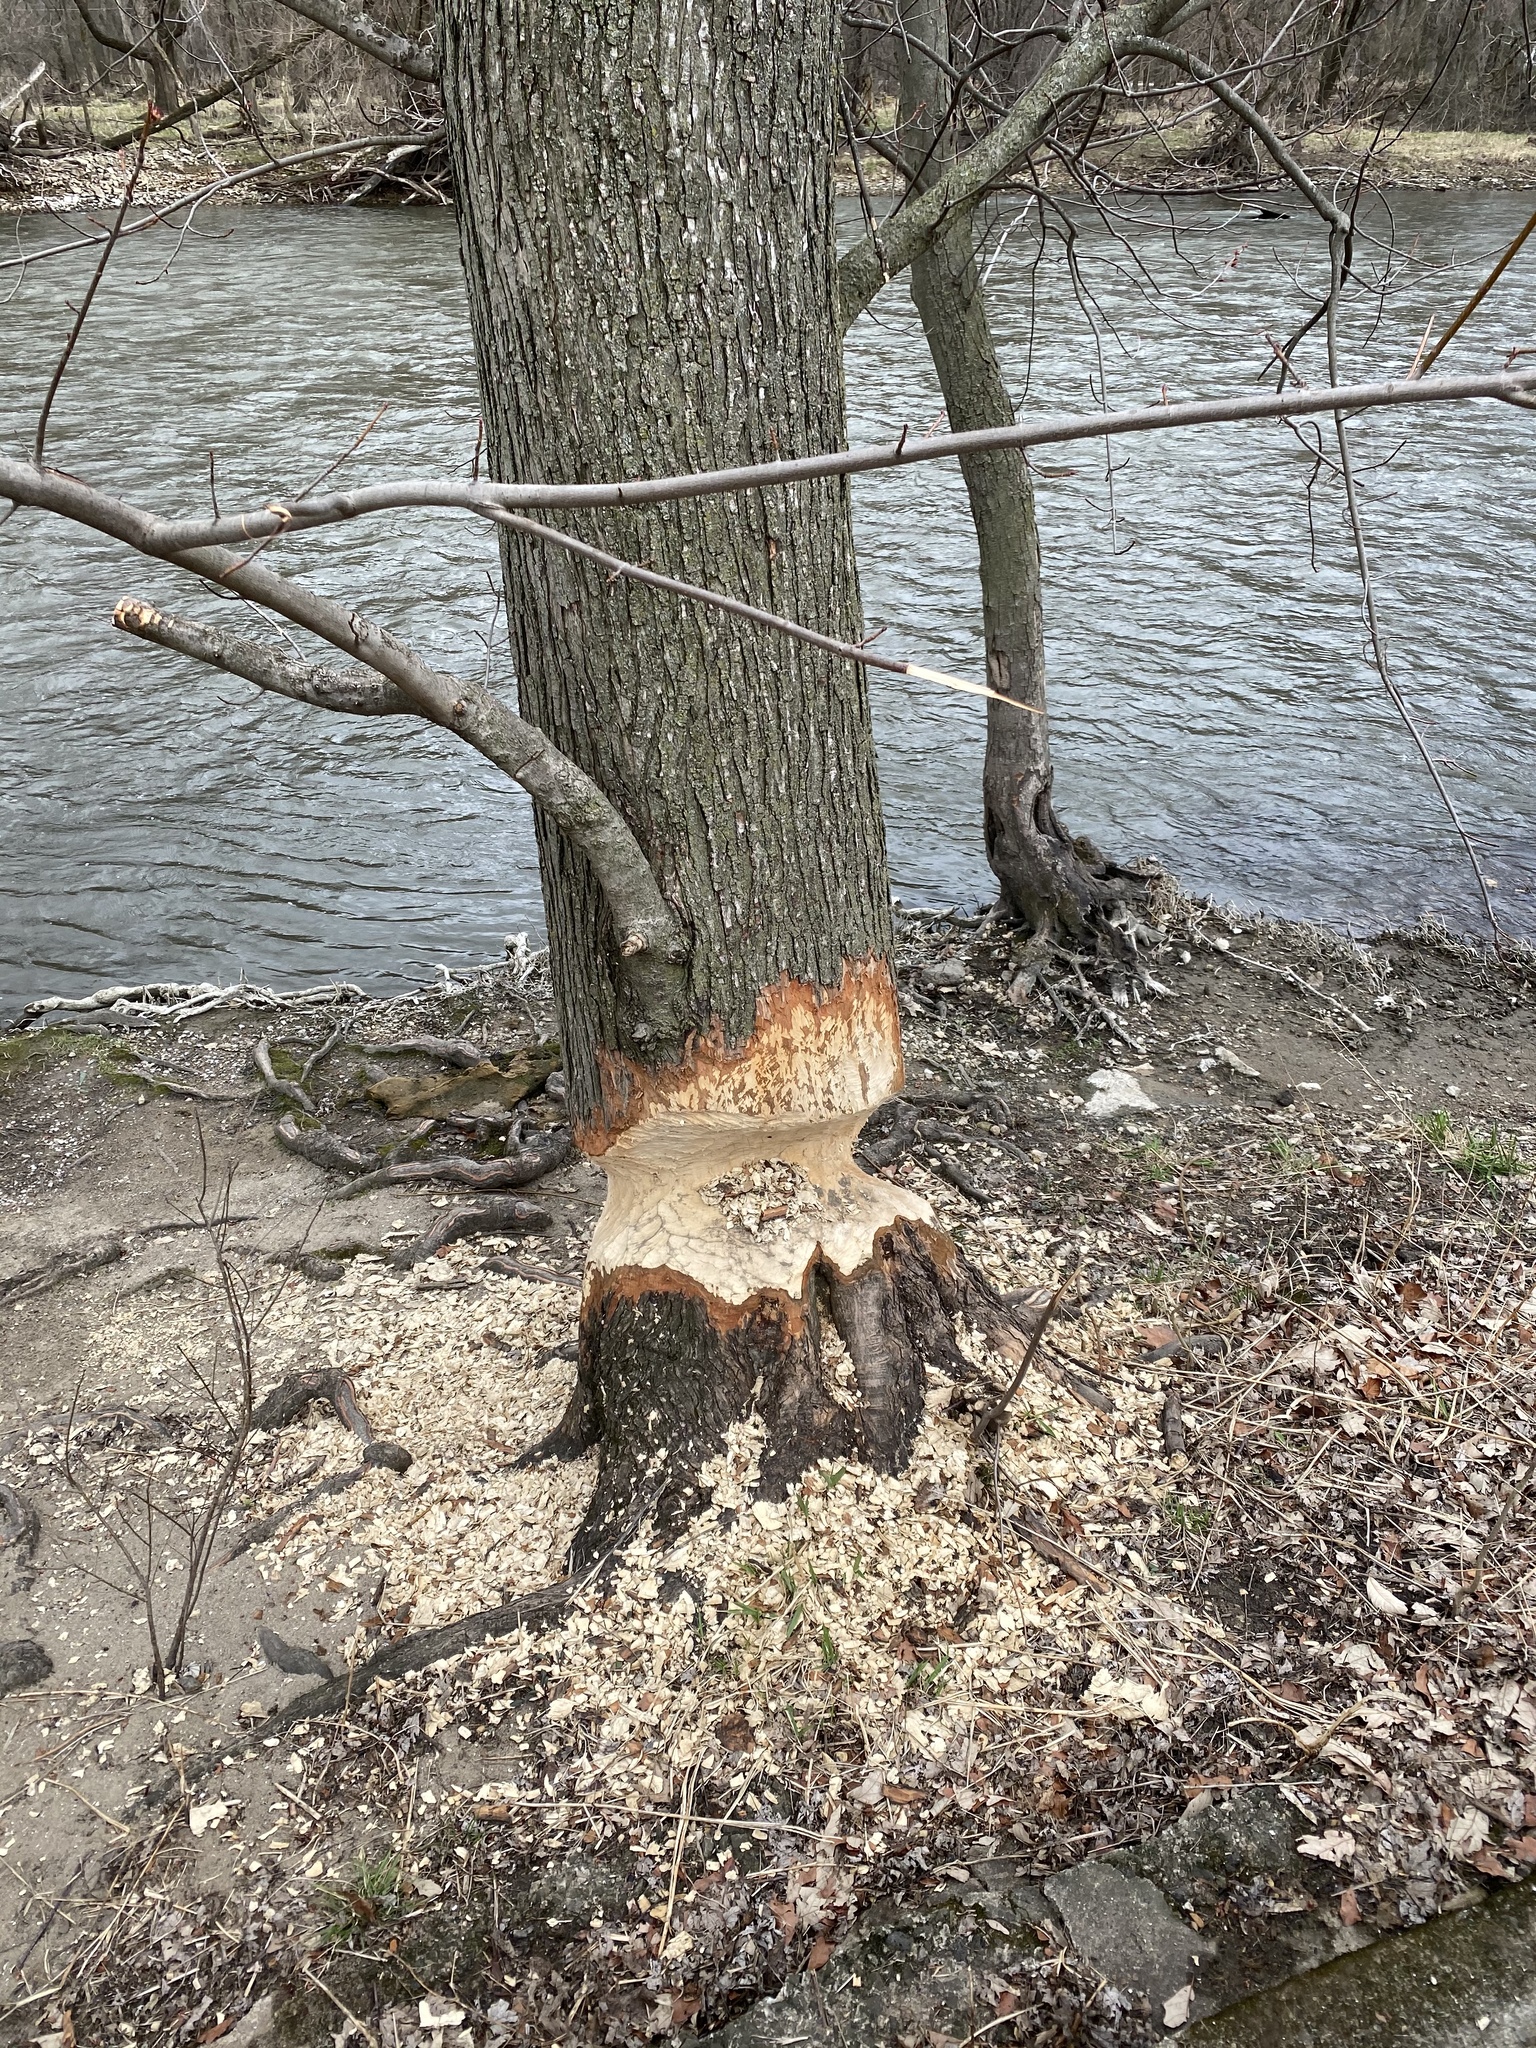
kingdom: Animalia
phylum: Chordata
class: Mammalia
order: Rodentia
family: Castoridae
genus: Castor
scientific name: Castor canadensis
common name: American beaver
